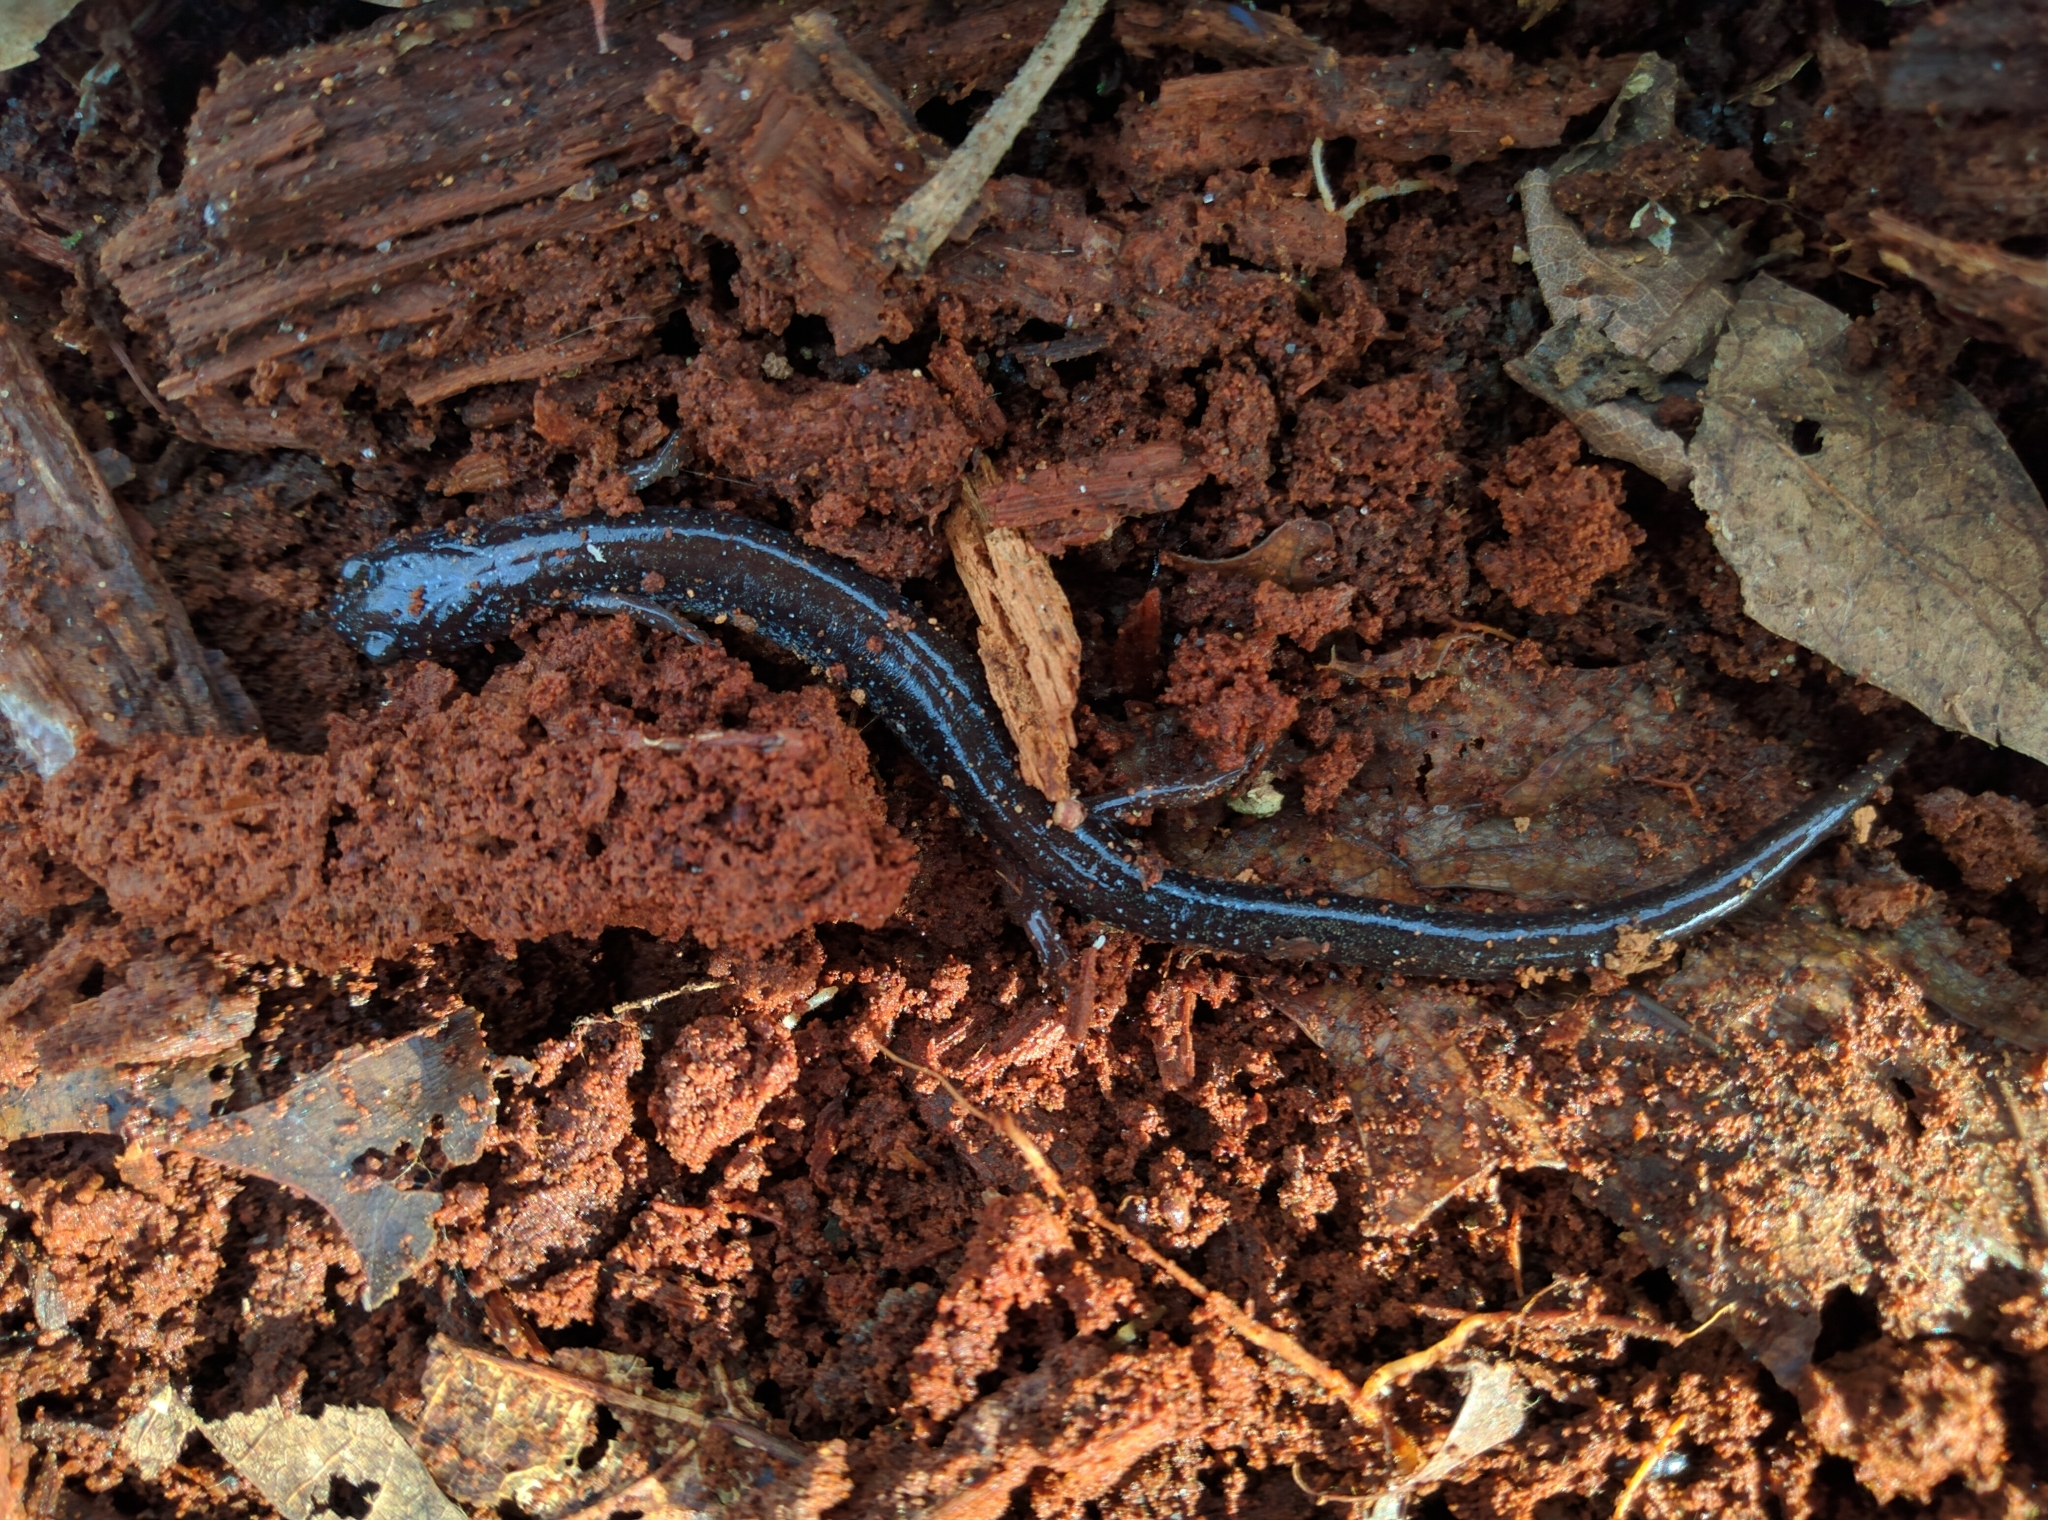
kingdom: Animalia
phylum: Chordata
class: Amphibia
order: Caudata
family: Plethodontidae
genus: Plethodon
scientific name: Plethodon cinereus
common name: Redback salamander
